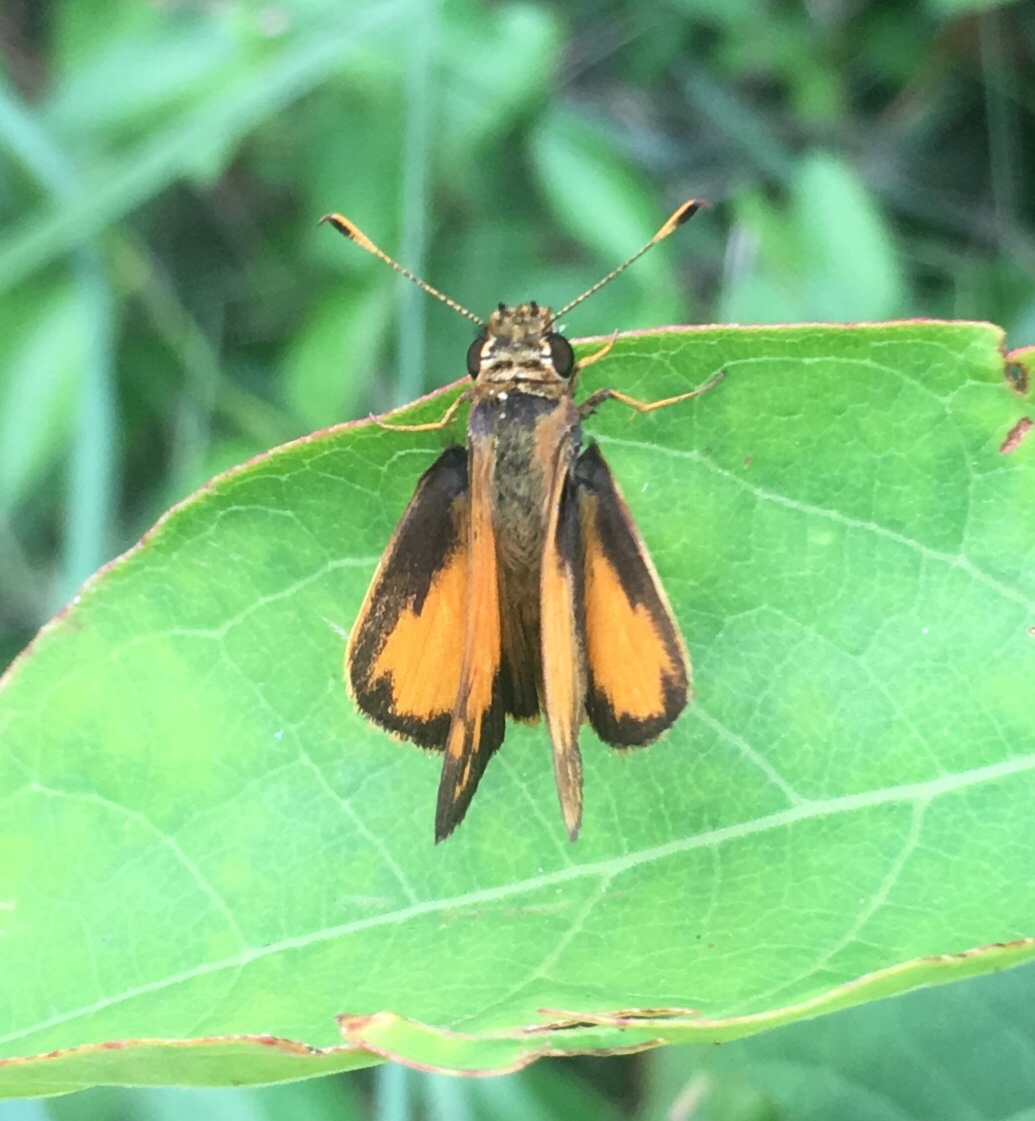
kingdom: Animalia
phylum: Arthropoda
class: Insecta
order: Lepidoptera
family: Hesperiidae
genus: Lon
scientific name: Lon zabulon
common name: Zabulon skipper
